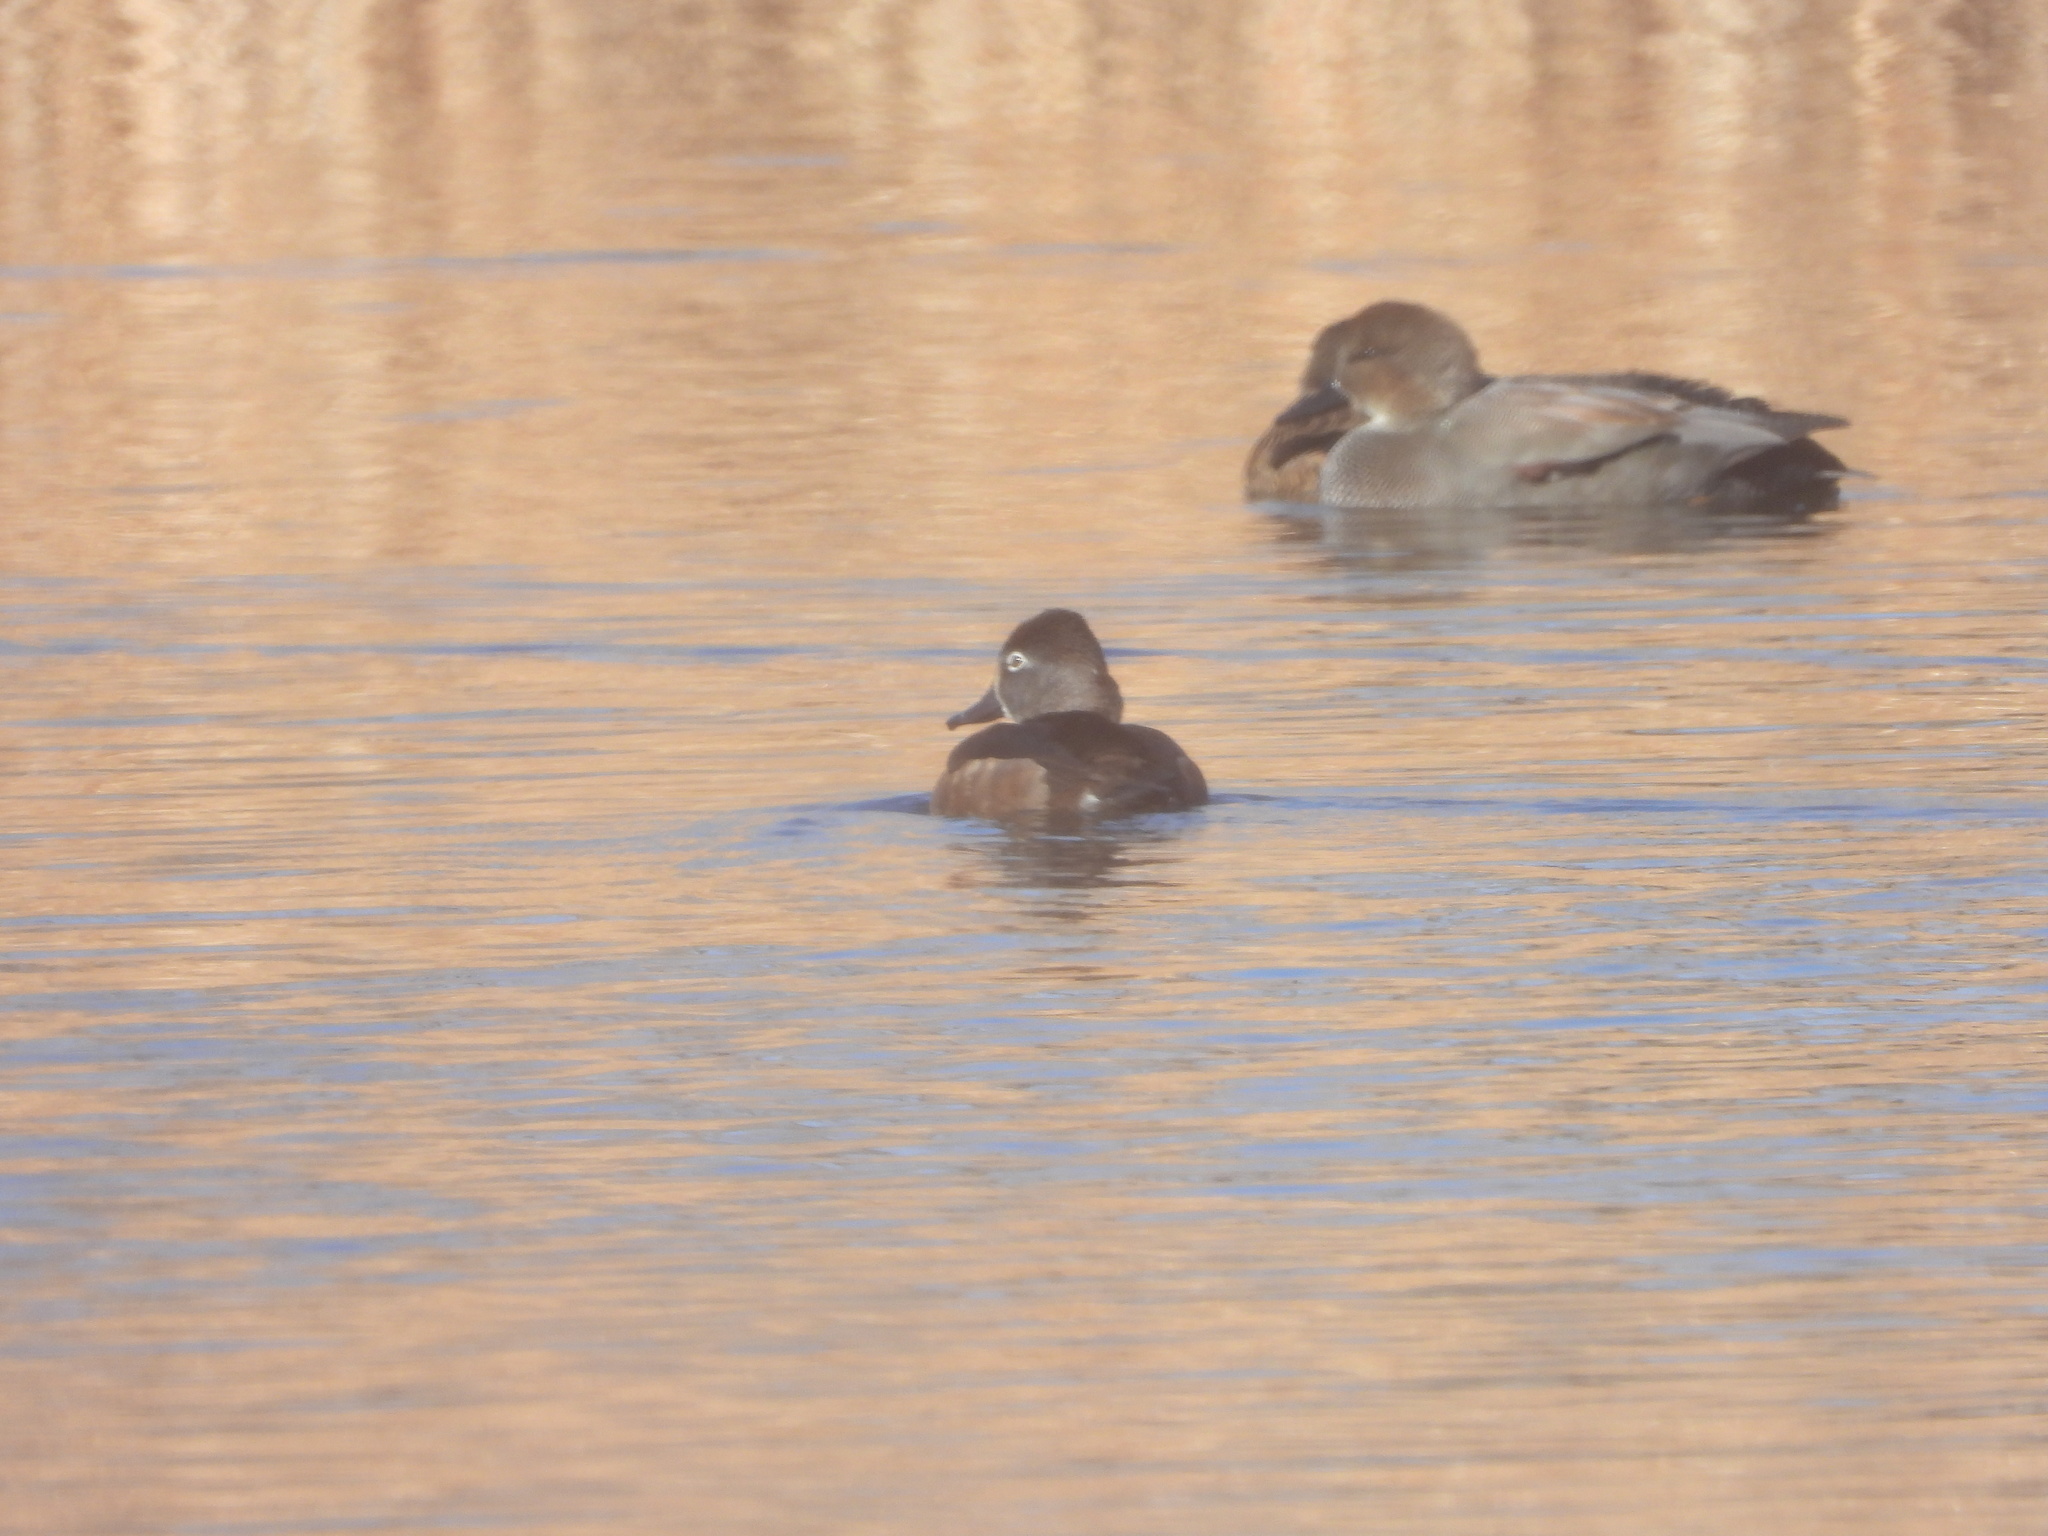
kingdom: Animalia
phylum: Chordata
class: Aves
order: Anseriformes
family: Anatidae
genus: Aythya
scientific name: Aythya collaris
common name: Ring-necked duck
